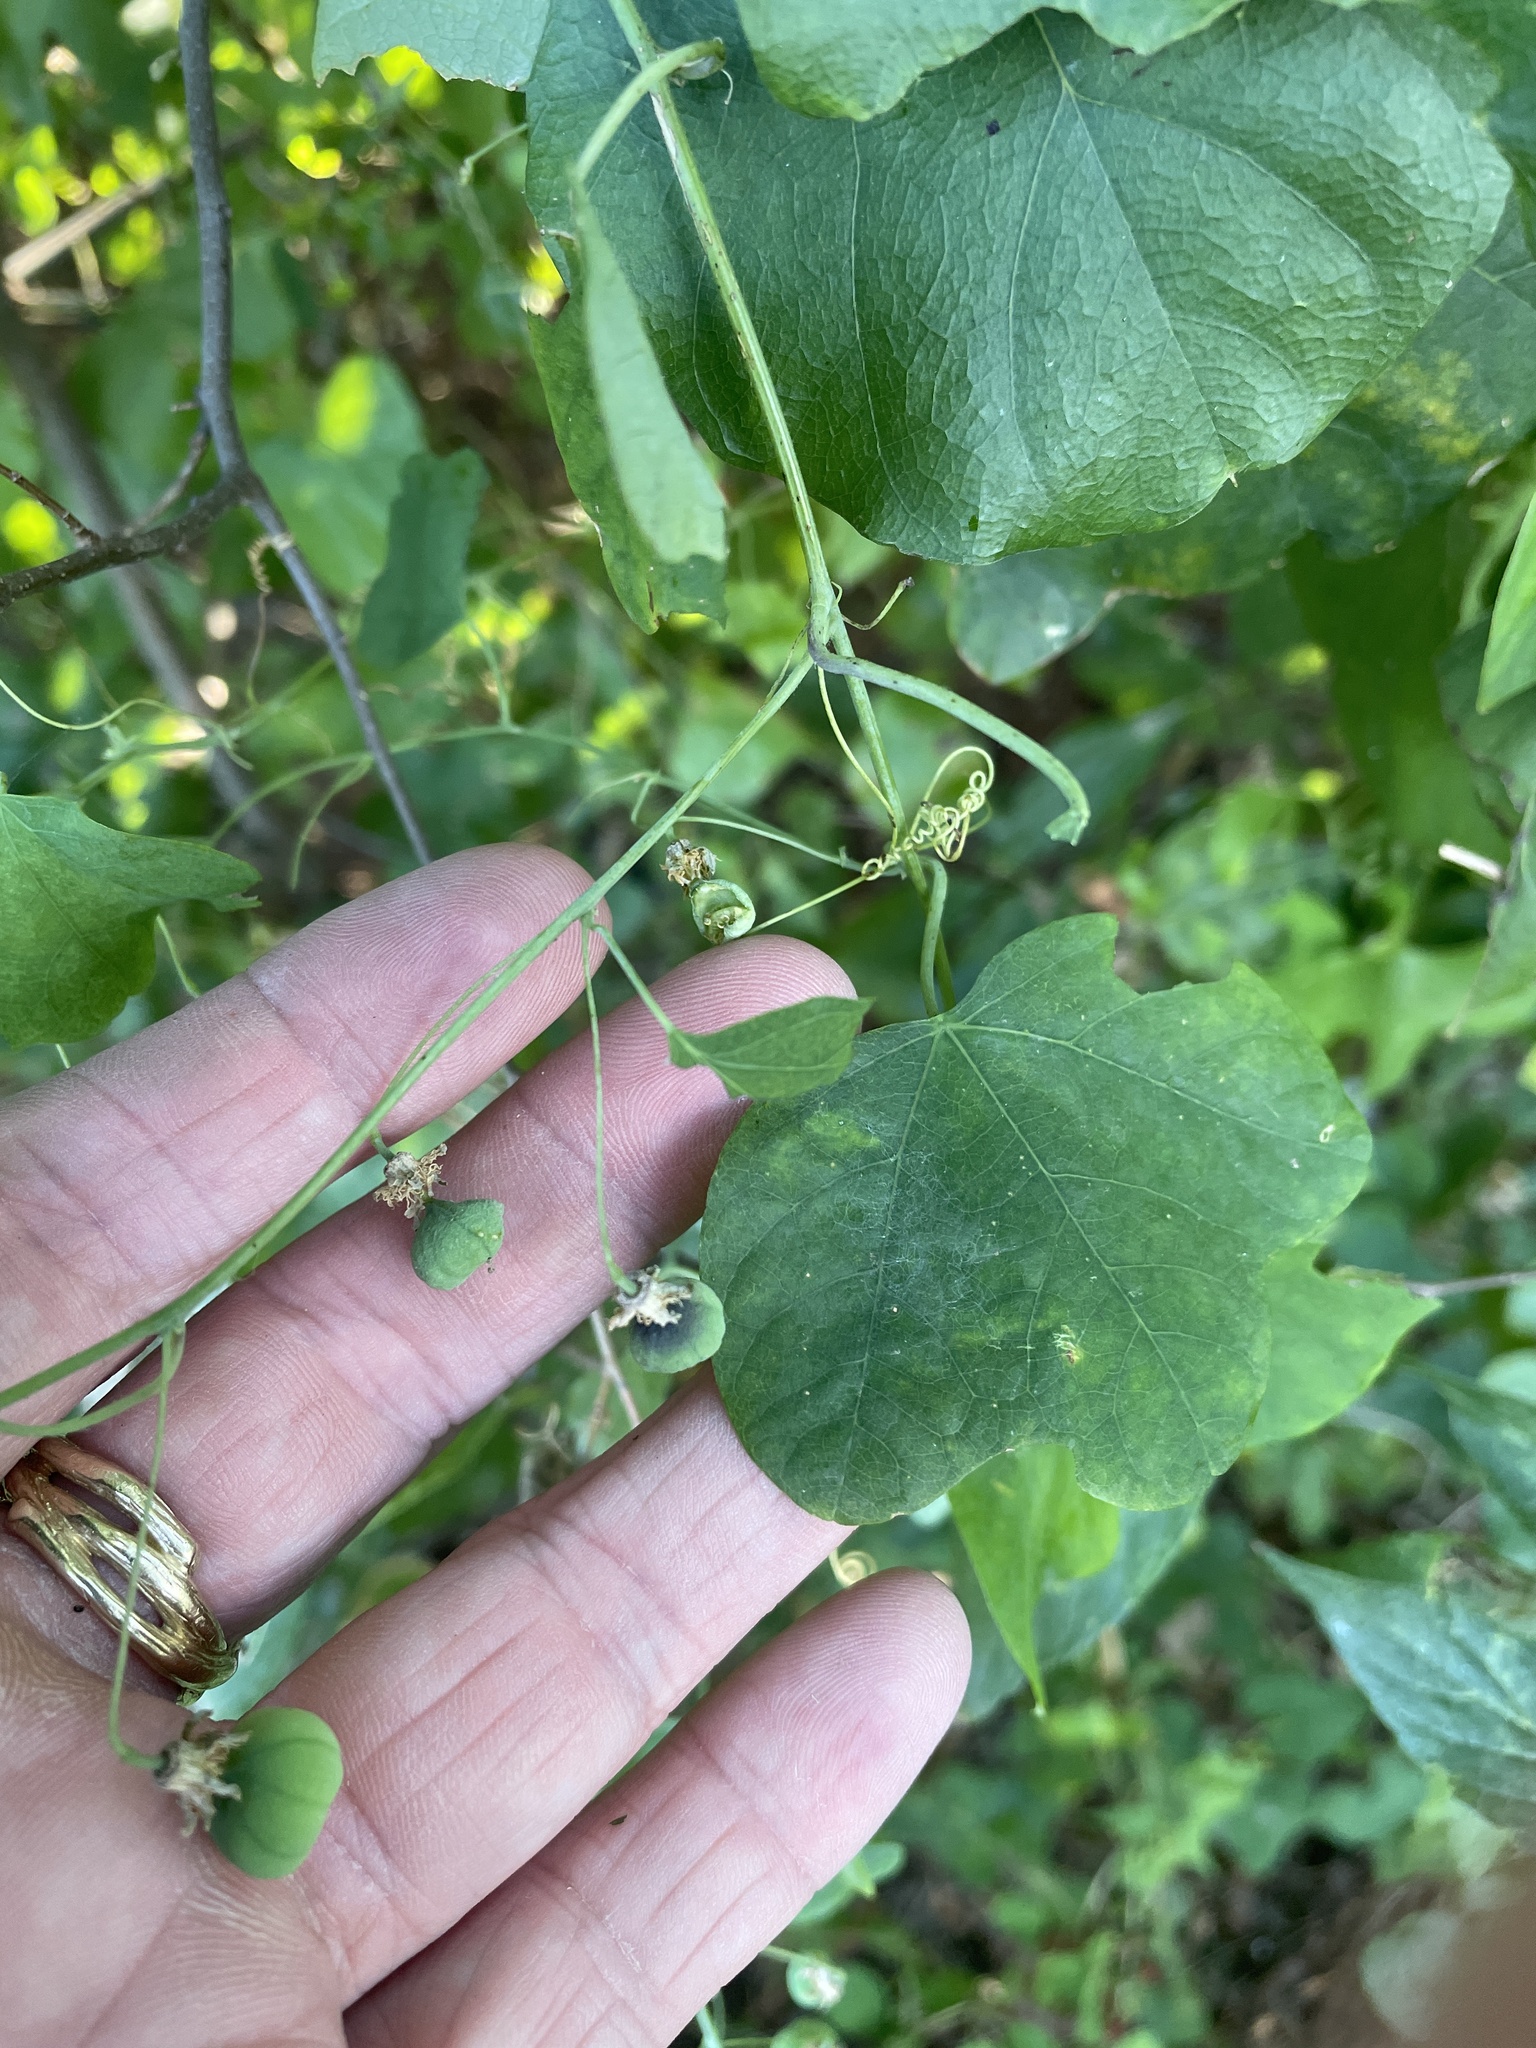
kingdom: Plantae
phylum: Tracheophyta
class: Magnoliopsida
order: Malpighiales
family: Passifloraceae
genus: Passiflora
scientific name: Passiflora lutea
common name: Yellow passionflower
